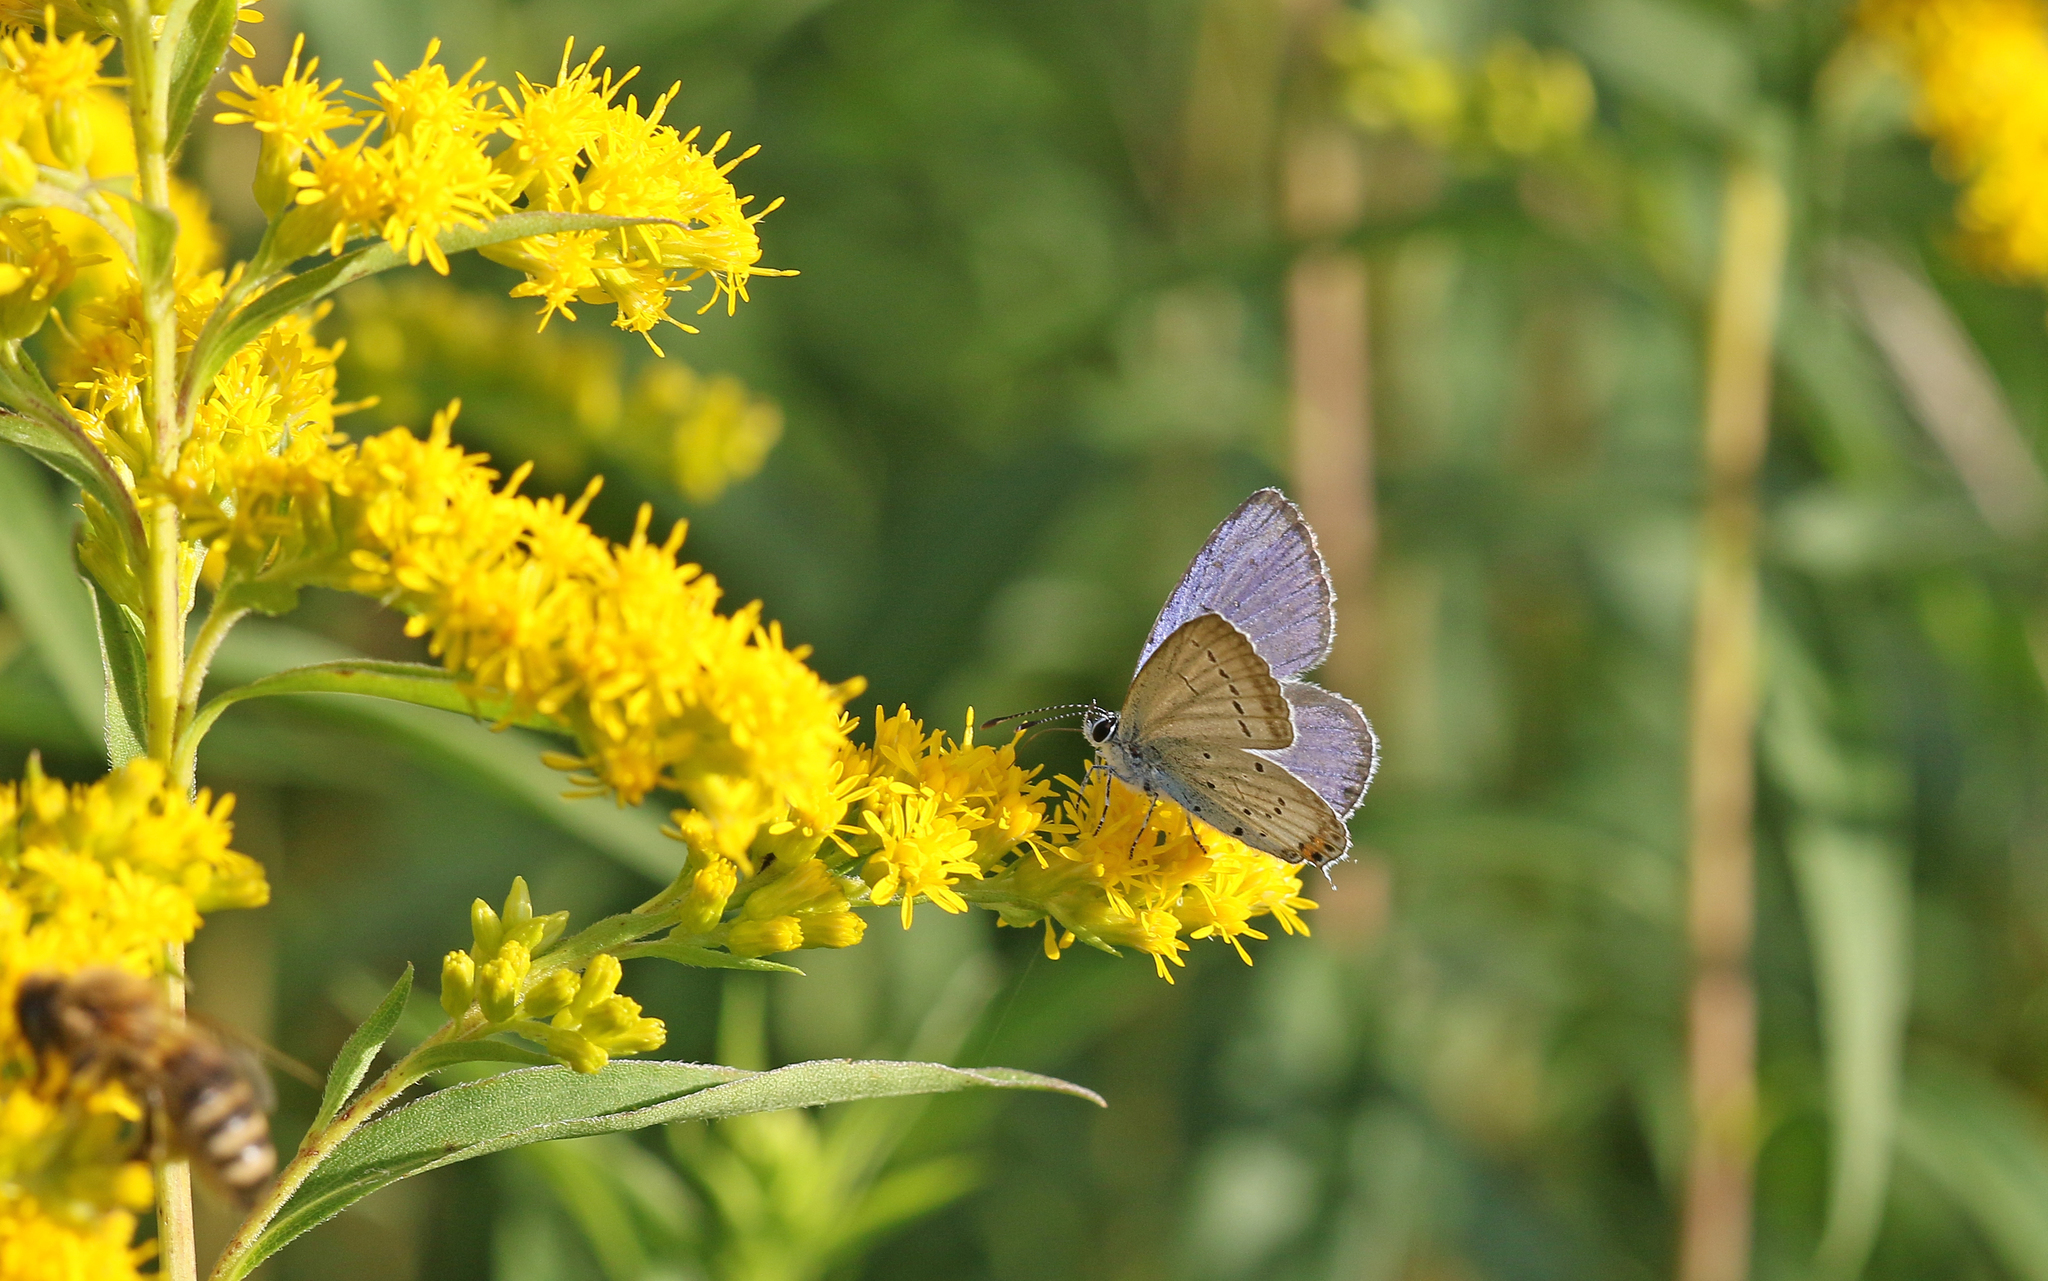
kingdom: Animalia
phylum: Arthropoda
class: Insecta
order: Lepidoptera
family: Lycaenidae
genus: Elkalyce
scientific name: Elkalyce argiades
